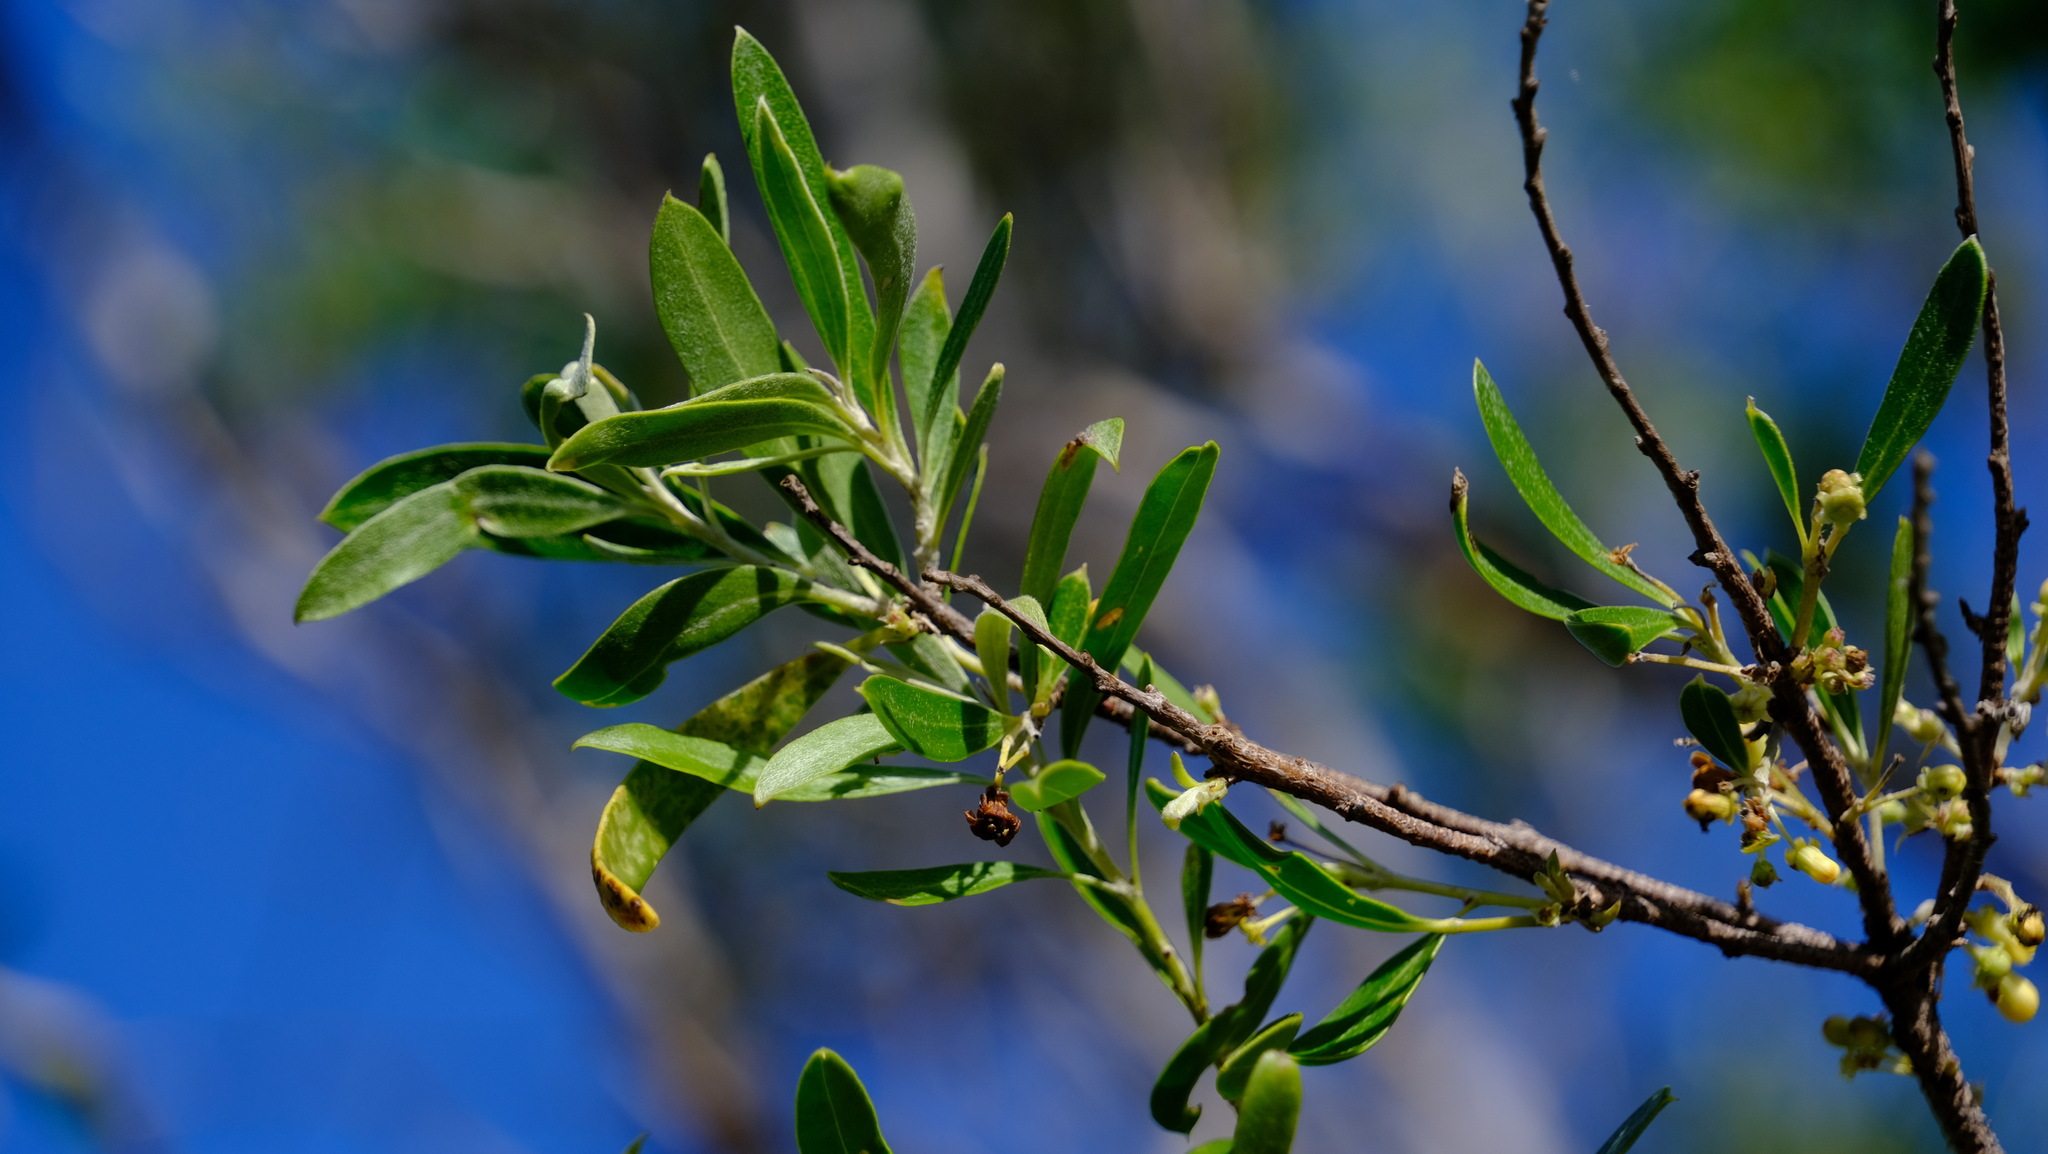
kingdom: Plantae
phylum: Tracheophyta
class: Magnoliopsida
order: Apiales
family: Pittosporaceae
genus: Pittosporum
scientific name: Pittosporum ligustrifolium
